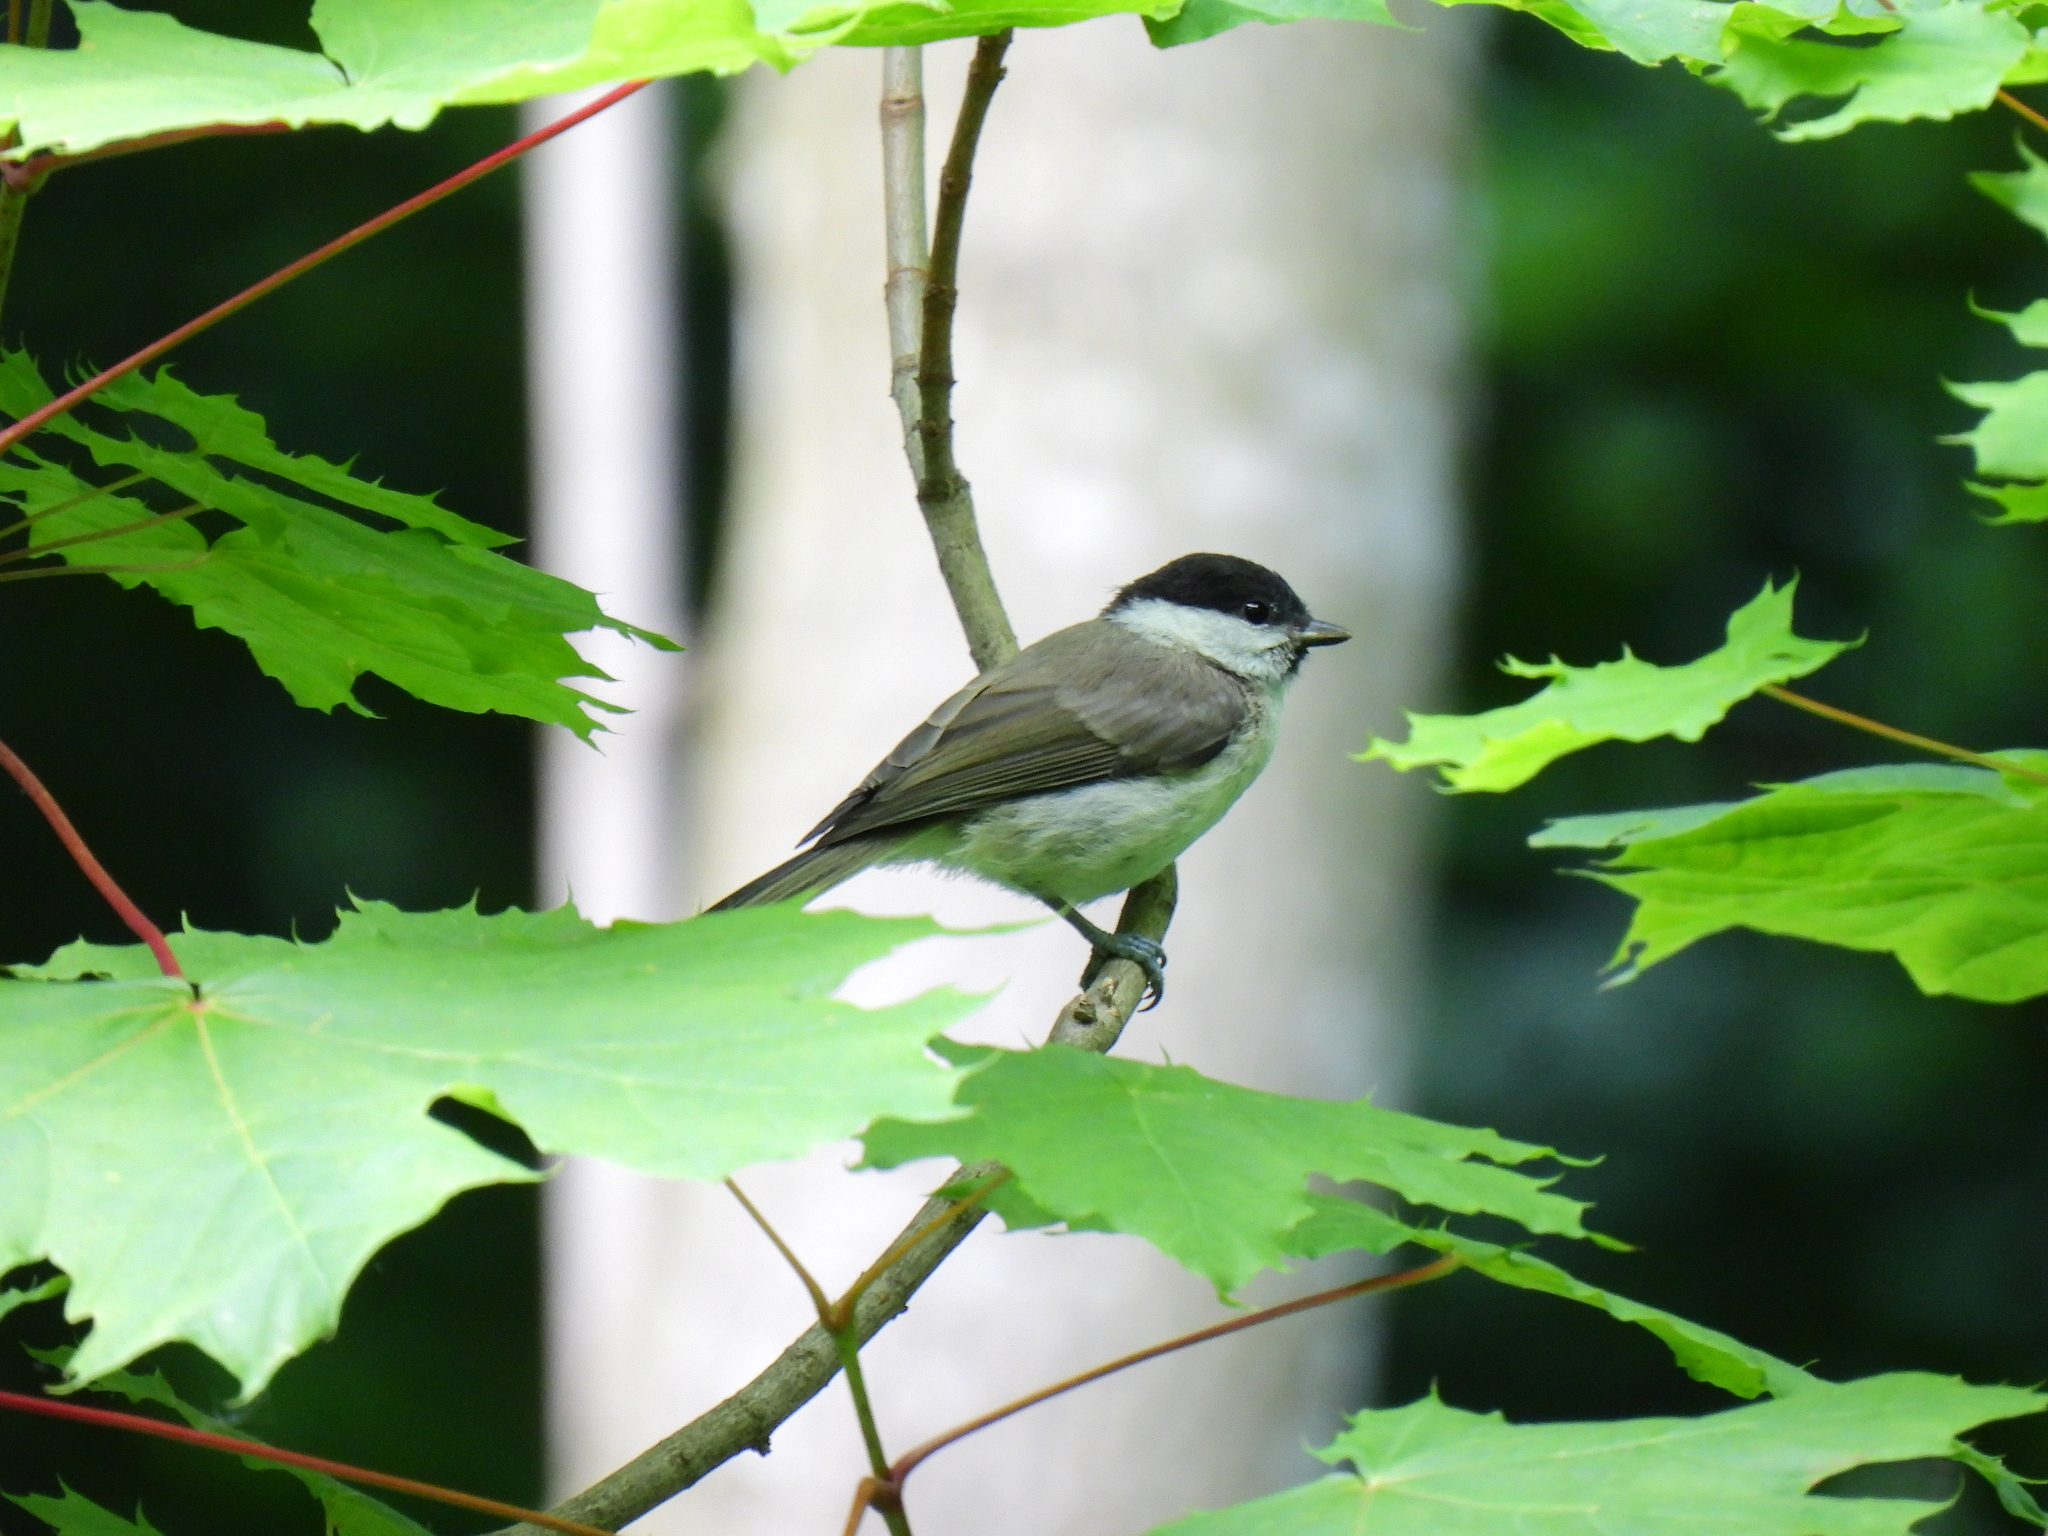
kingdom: Animalia
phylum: Chordata
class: Aves
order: Passeriformes
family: Paridae
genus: Poecile
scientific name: Poecile palustris
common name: Marsh tit
